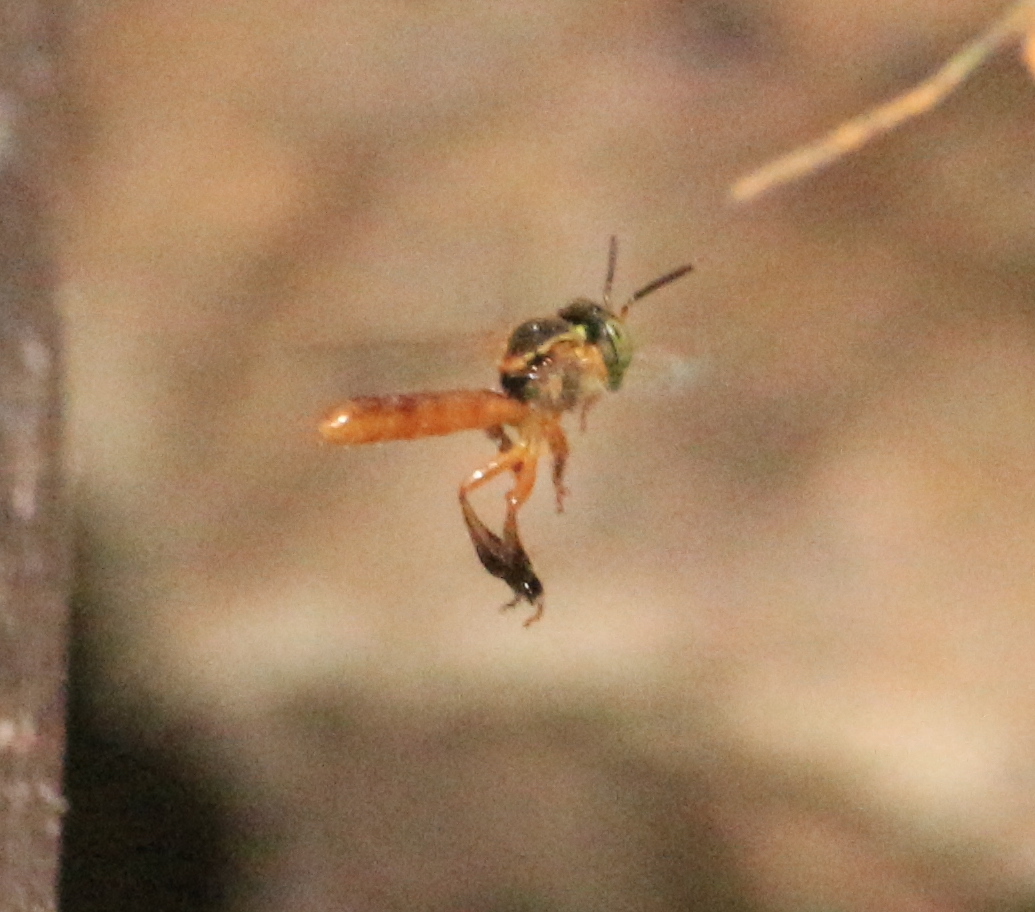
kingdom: Animalia
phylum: Arthropoda
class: Insecta
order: Hymenoptera
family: Apidae
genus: Tetragonisca
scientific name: Tetragonisca fiebrigi
